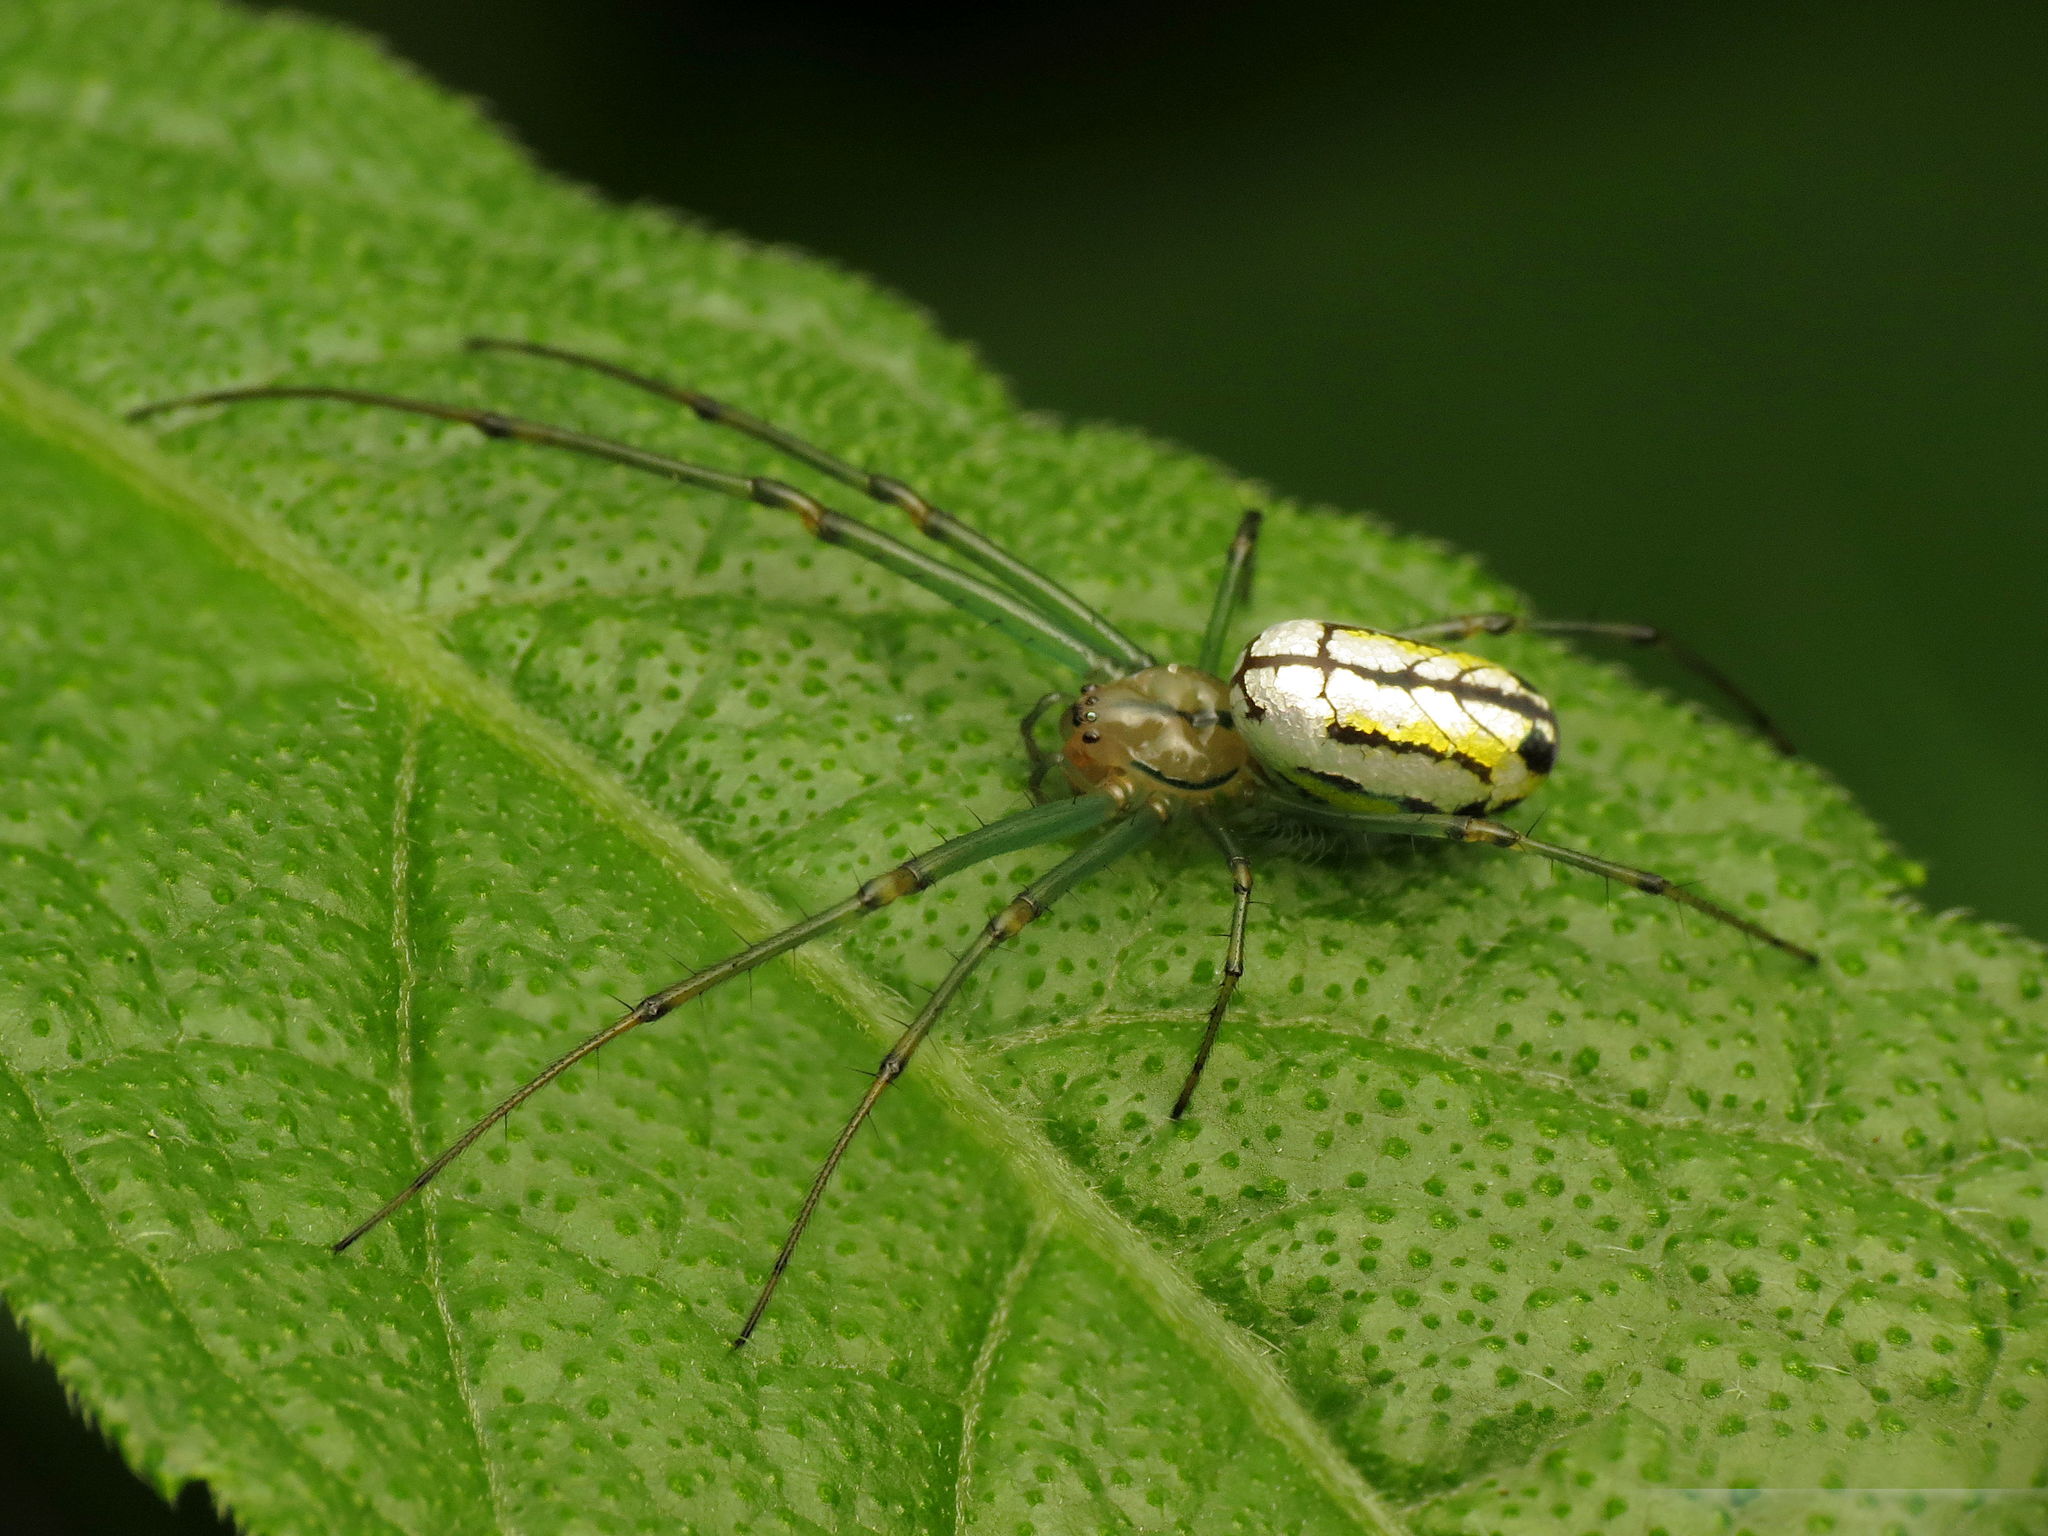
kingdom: Animalia
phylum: Arthropoda
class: Arachnida
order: Araneae
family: Tetragnathidae
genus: Leucauge
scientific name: Leucauge venusta
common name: Longjawed orb weavers
